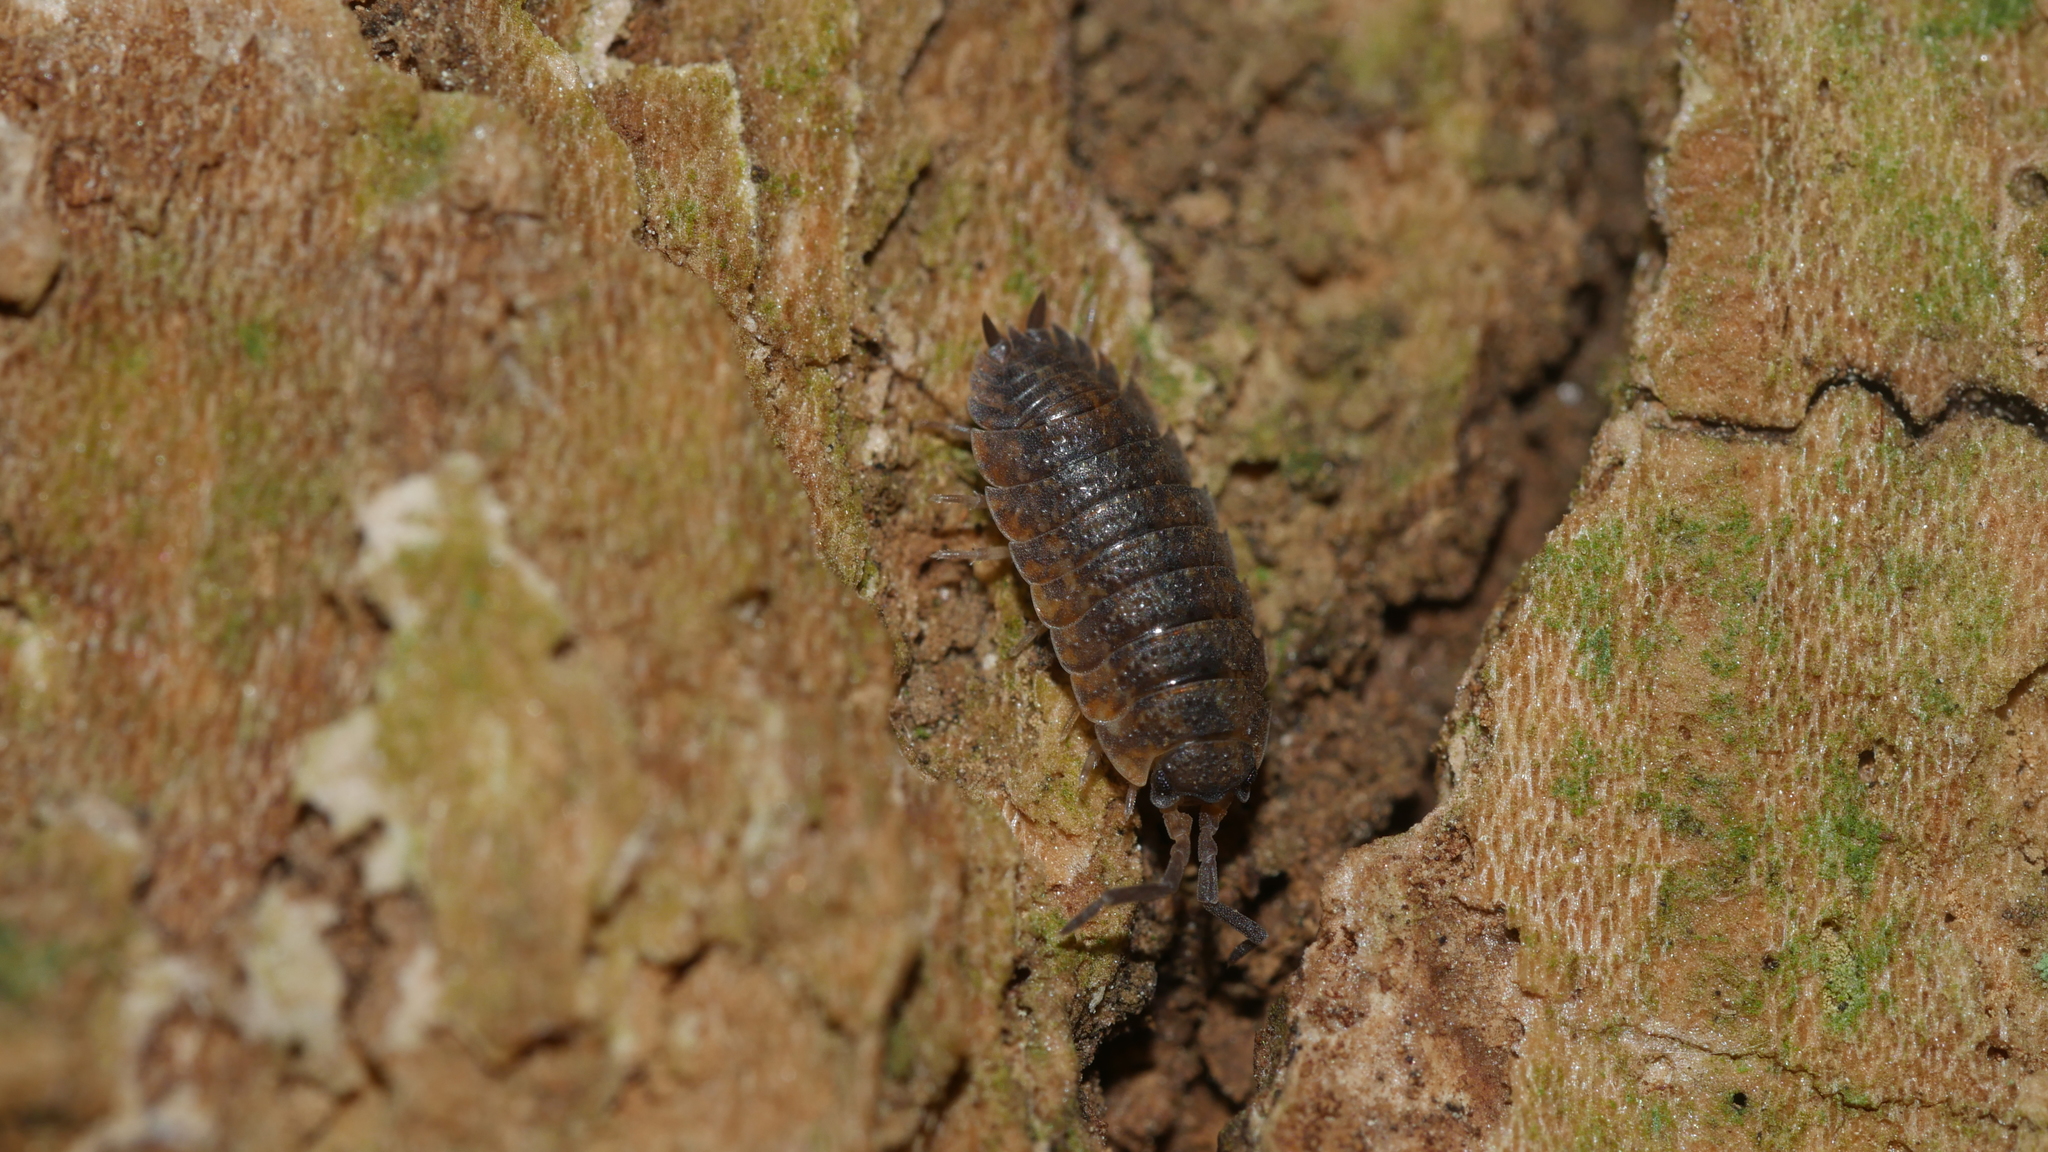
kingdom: Animalia
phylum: Arthropoda
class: Malacostraca
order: Isopoda
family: Porcellionidae
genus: Porcellio
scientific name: Porcellio scaber
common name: Common rough woodlouse
